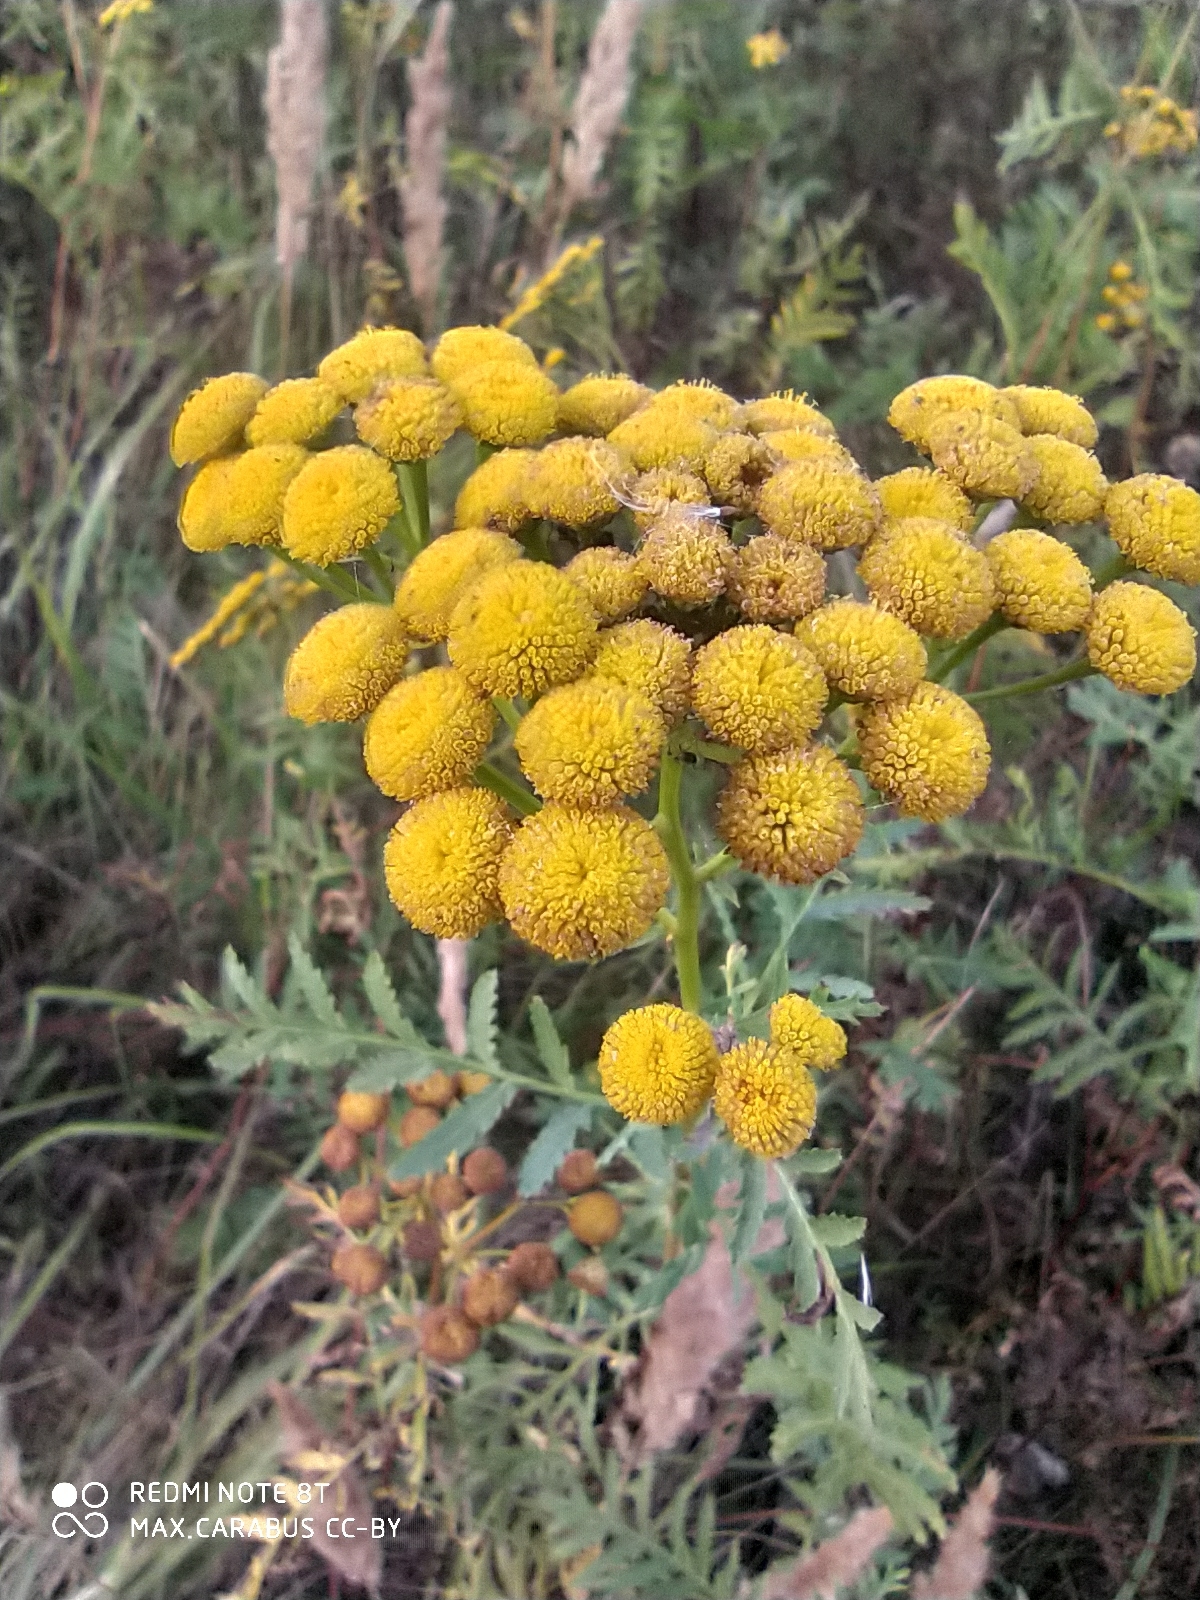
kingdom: Plantae
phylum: Tracheophyta
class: Magnoliopsida
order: Asterales
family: Asteraceae
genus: Tanacetum
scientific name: Tanacetum vulgare
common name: Common tansy
